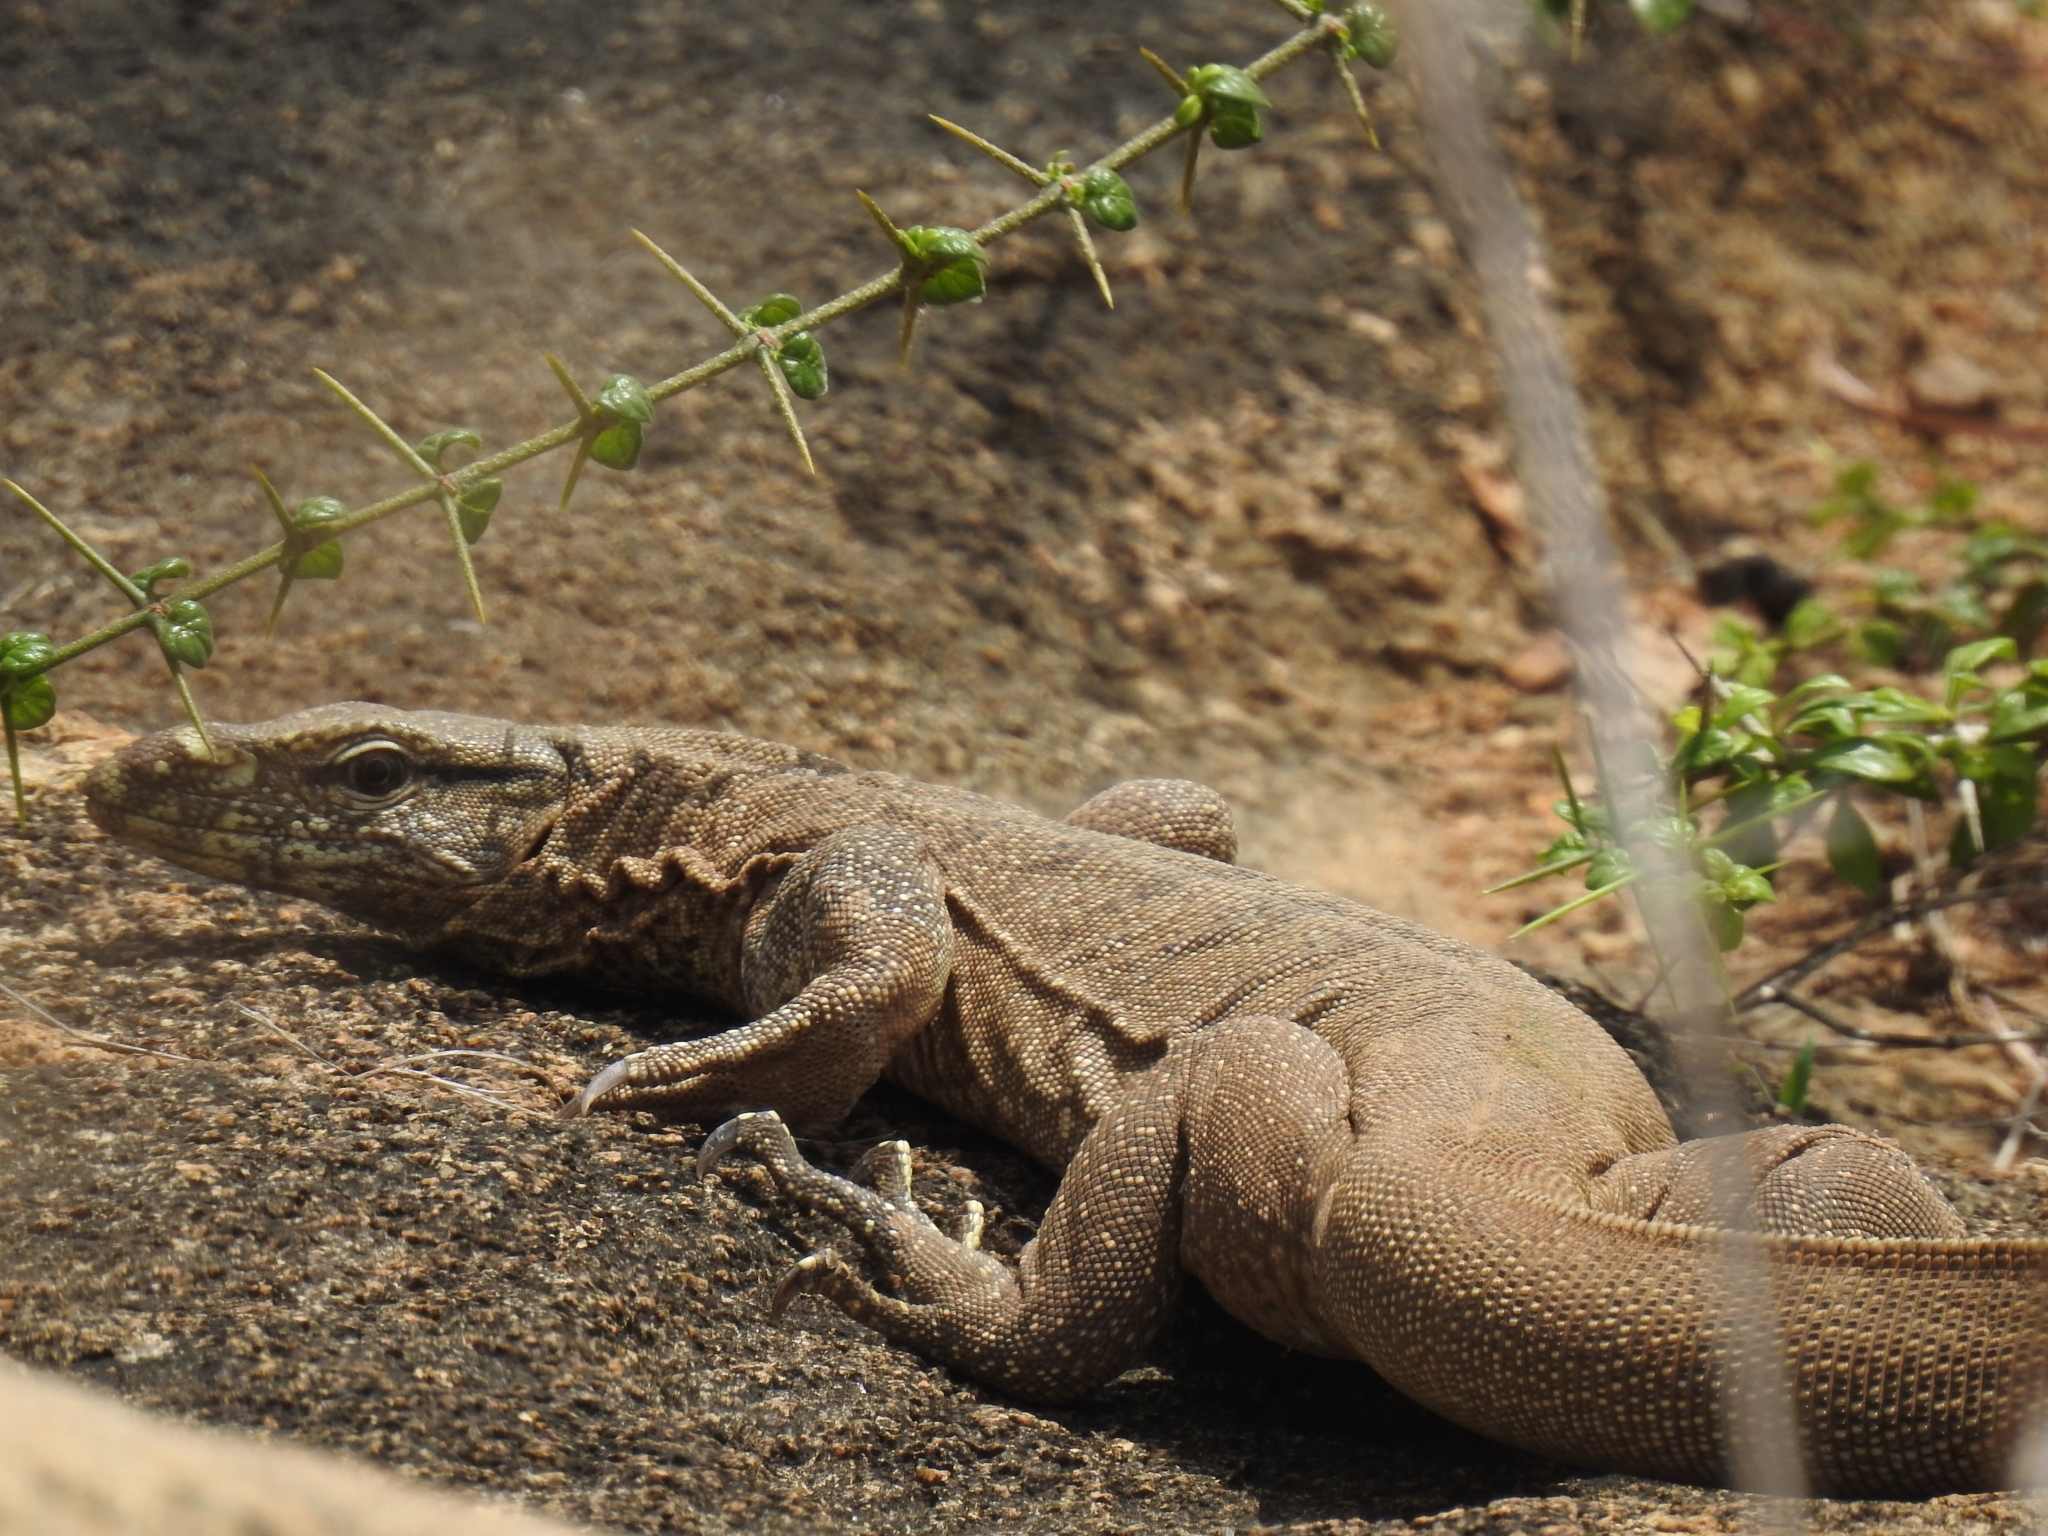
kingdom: Animalia
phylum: Chordata
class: Squamata
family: Varanidae
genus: Varanus
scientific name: Varanus bengalensis
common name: Bengal monitor
